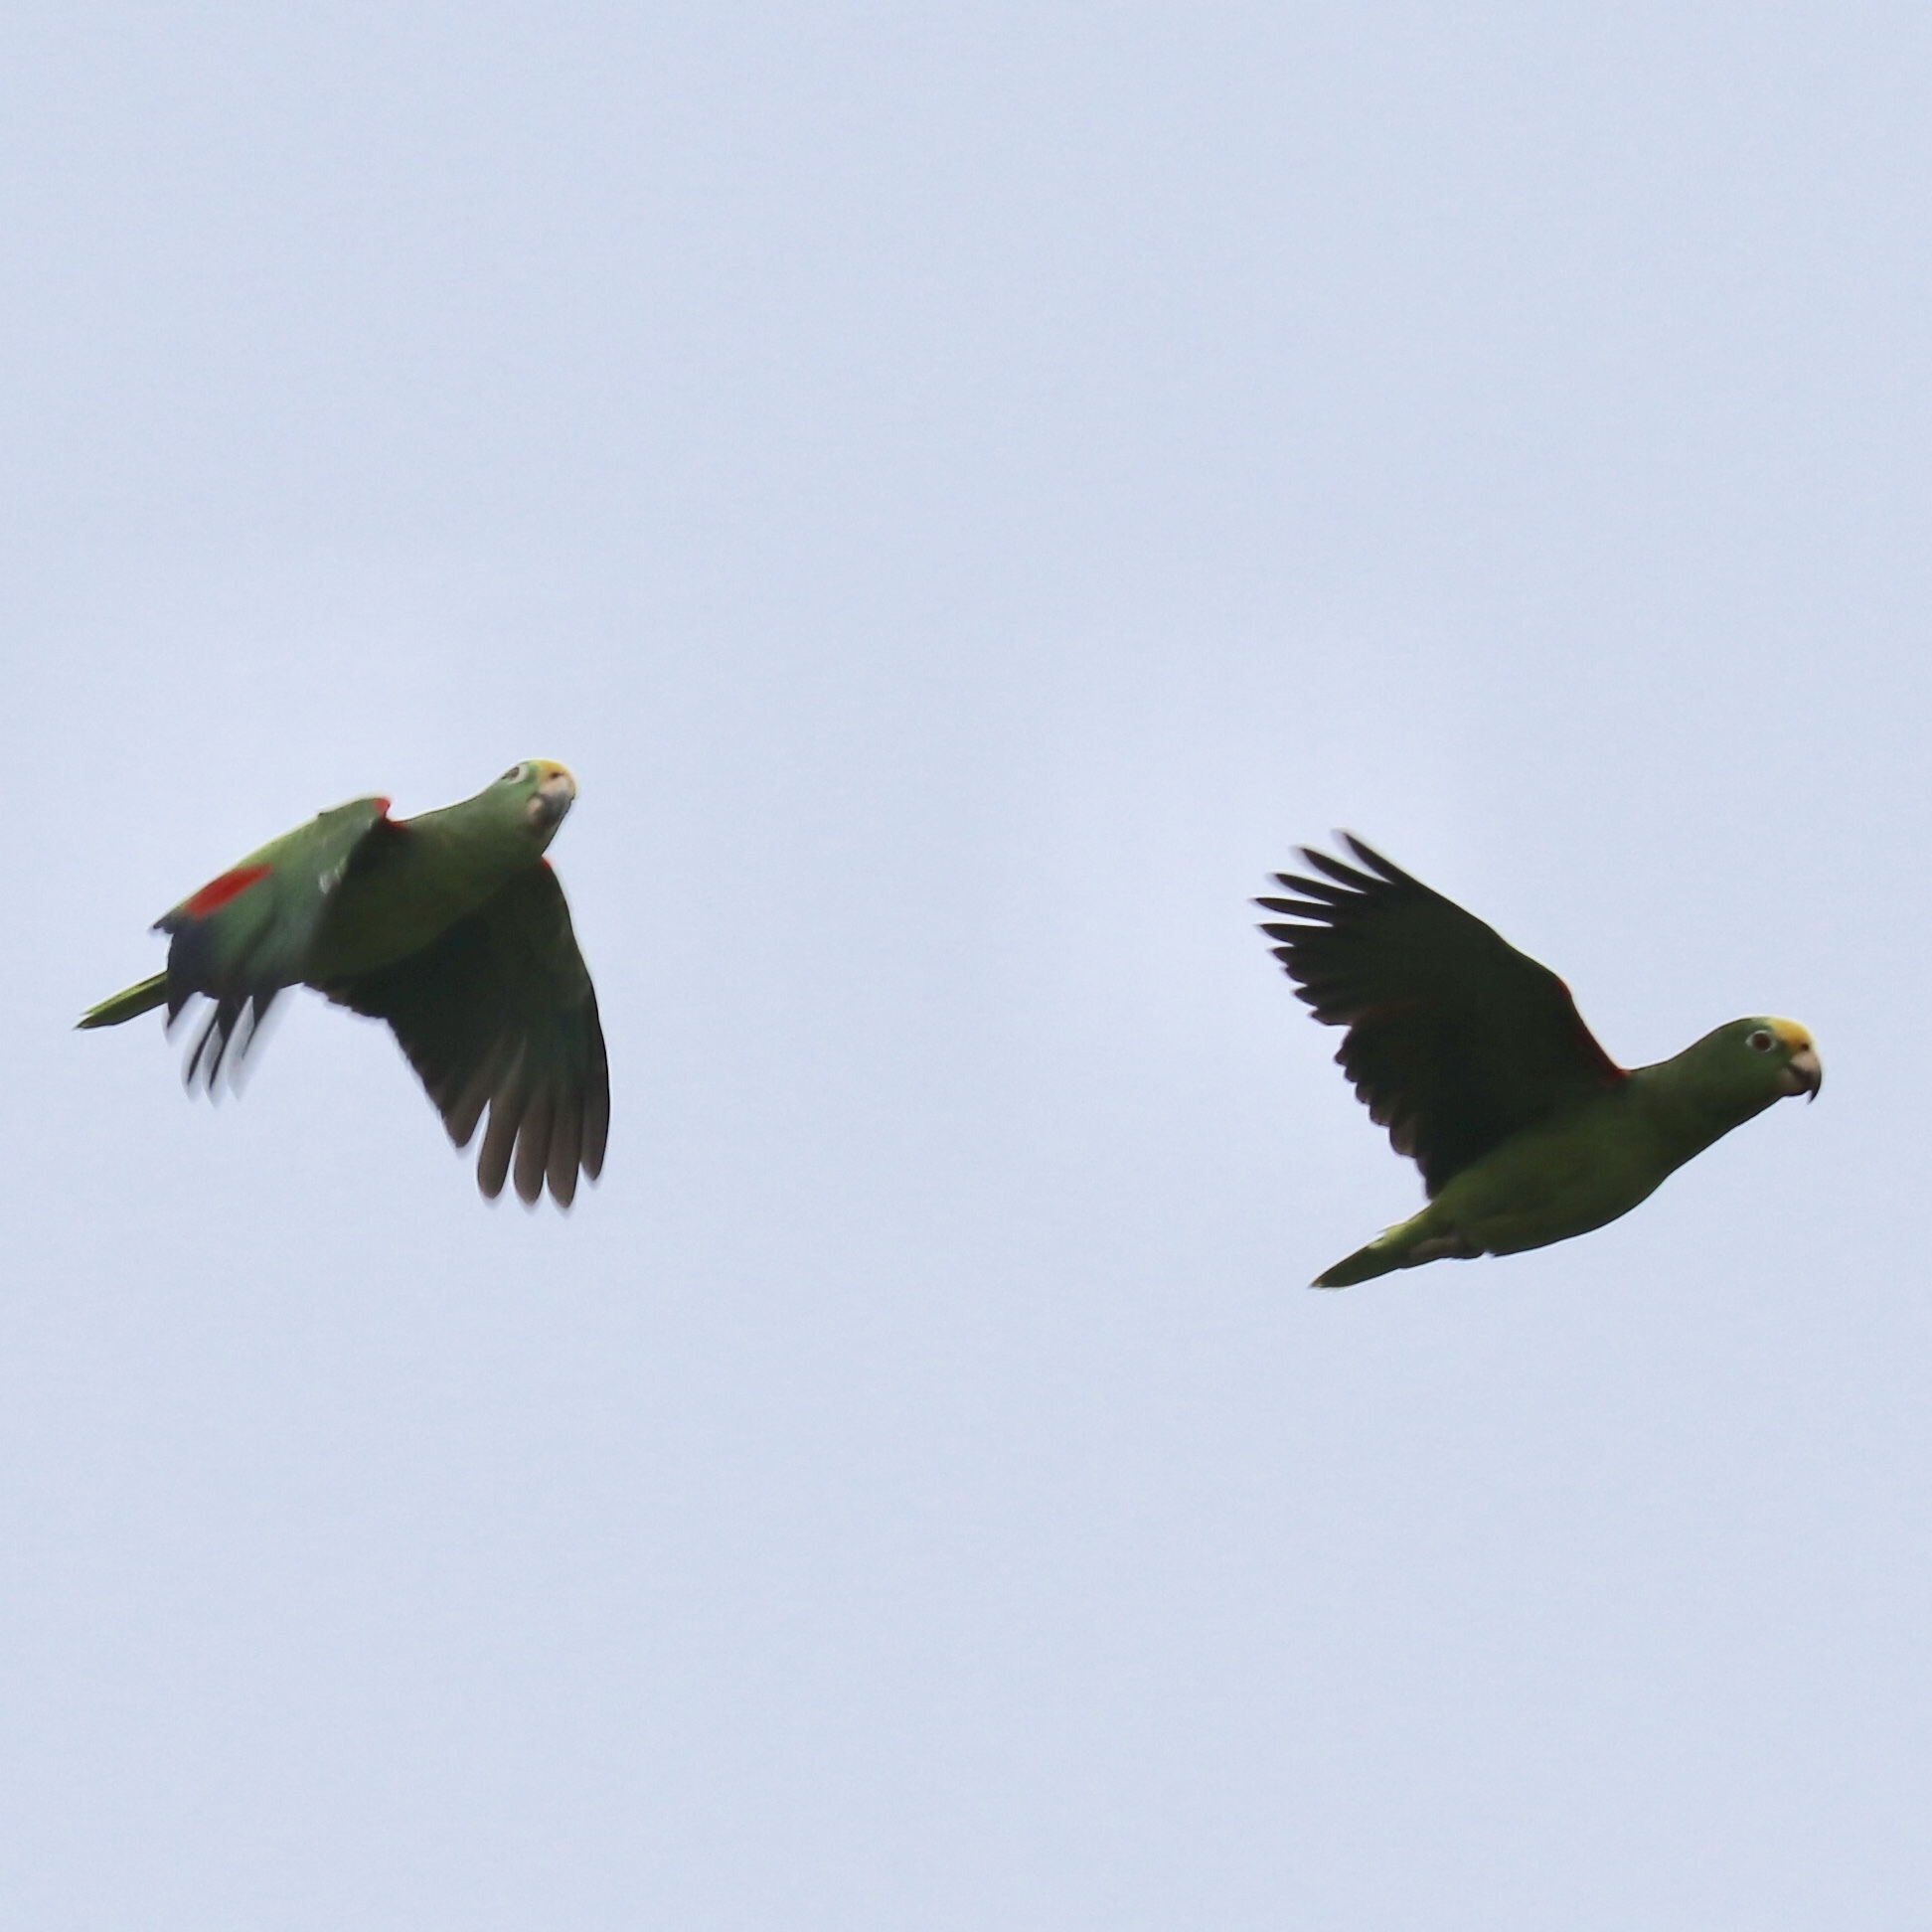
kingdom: Animalia
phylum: Chordata
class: Aves
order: Psittaciformes
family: Psittacidae
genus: Amazona
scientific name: Amazona ochrocephala
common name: Yellow-crowned amazon
